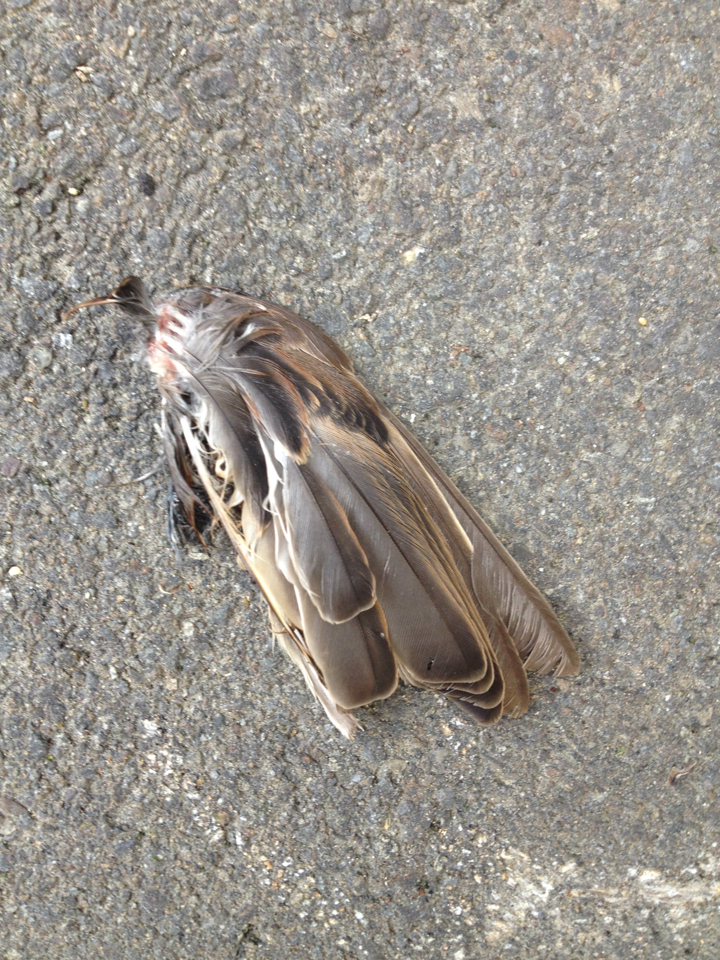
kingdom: Animalia
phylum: Chordata
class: Aves
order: Passeriformes
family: Passeridae
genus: Passer
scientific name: Passer domesticus
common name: House sparrow
